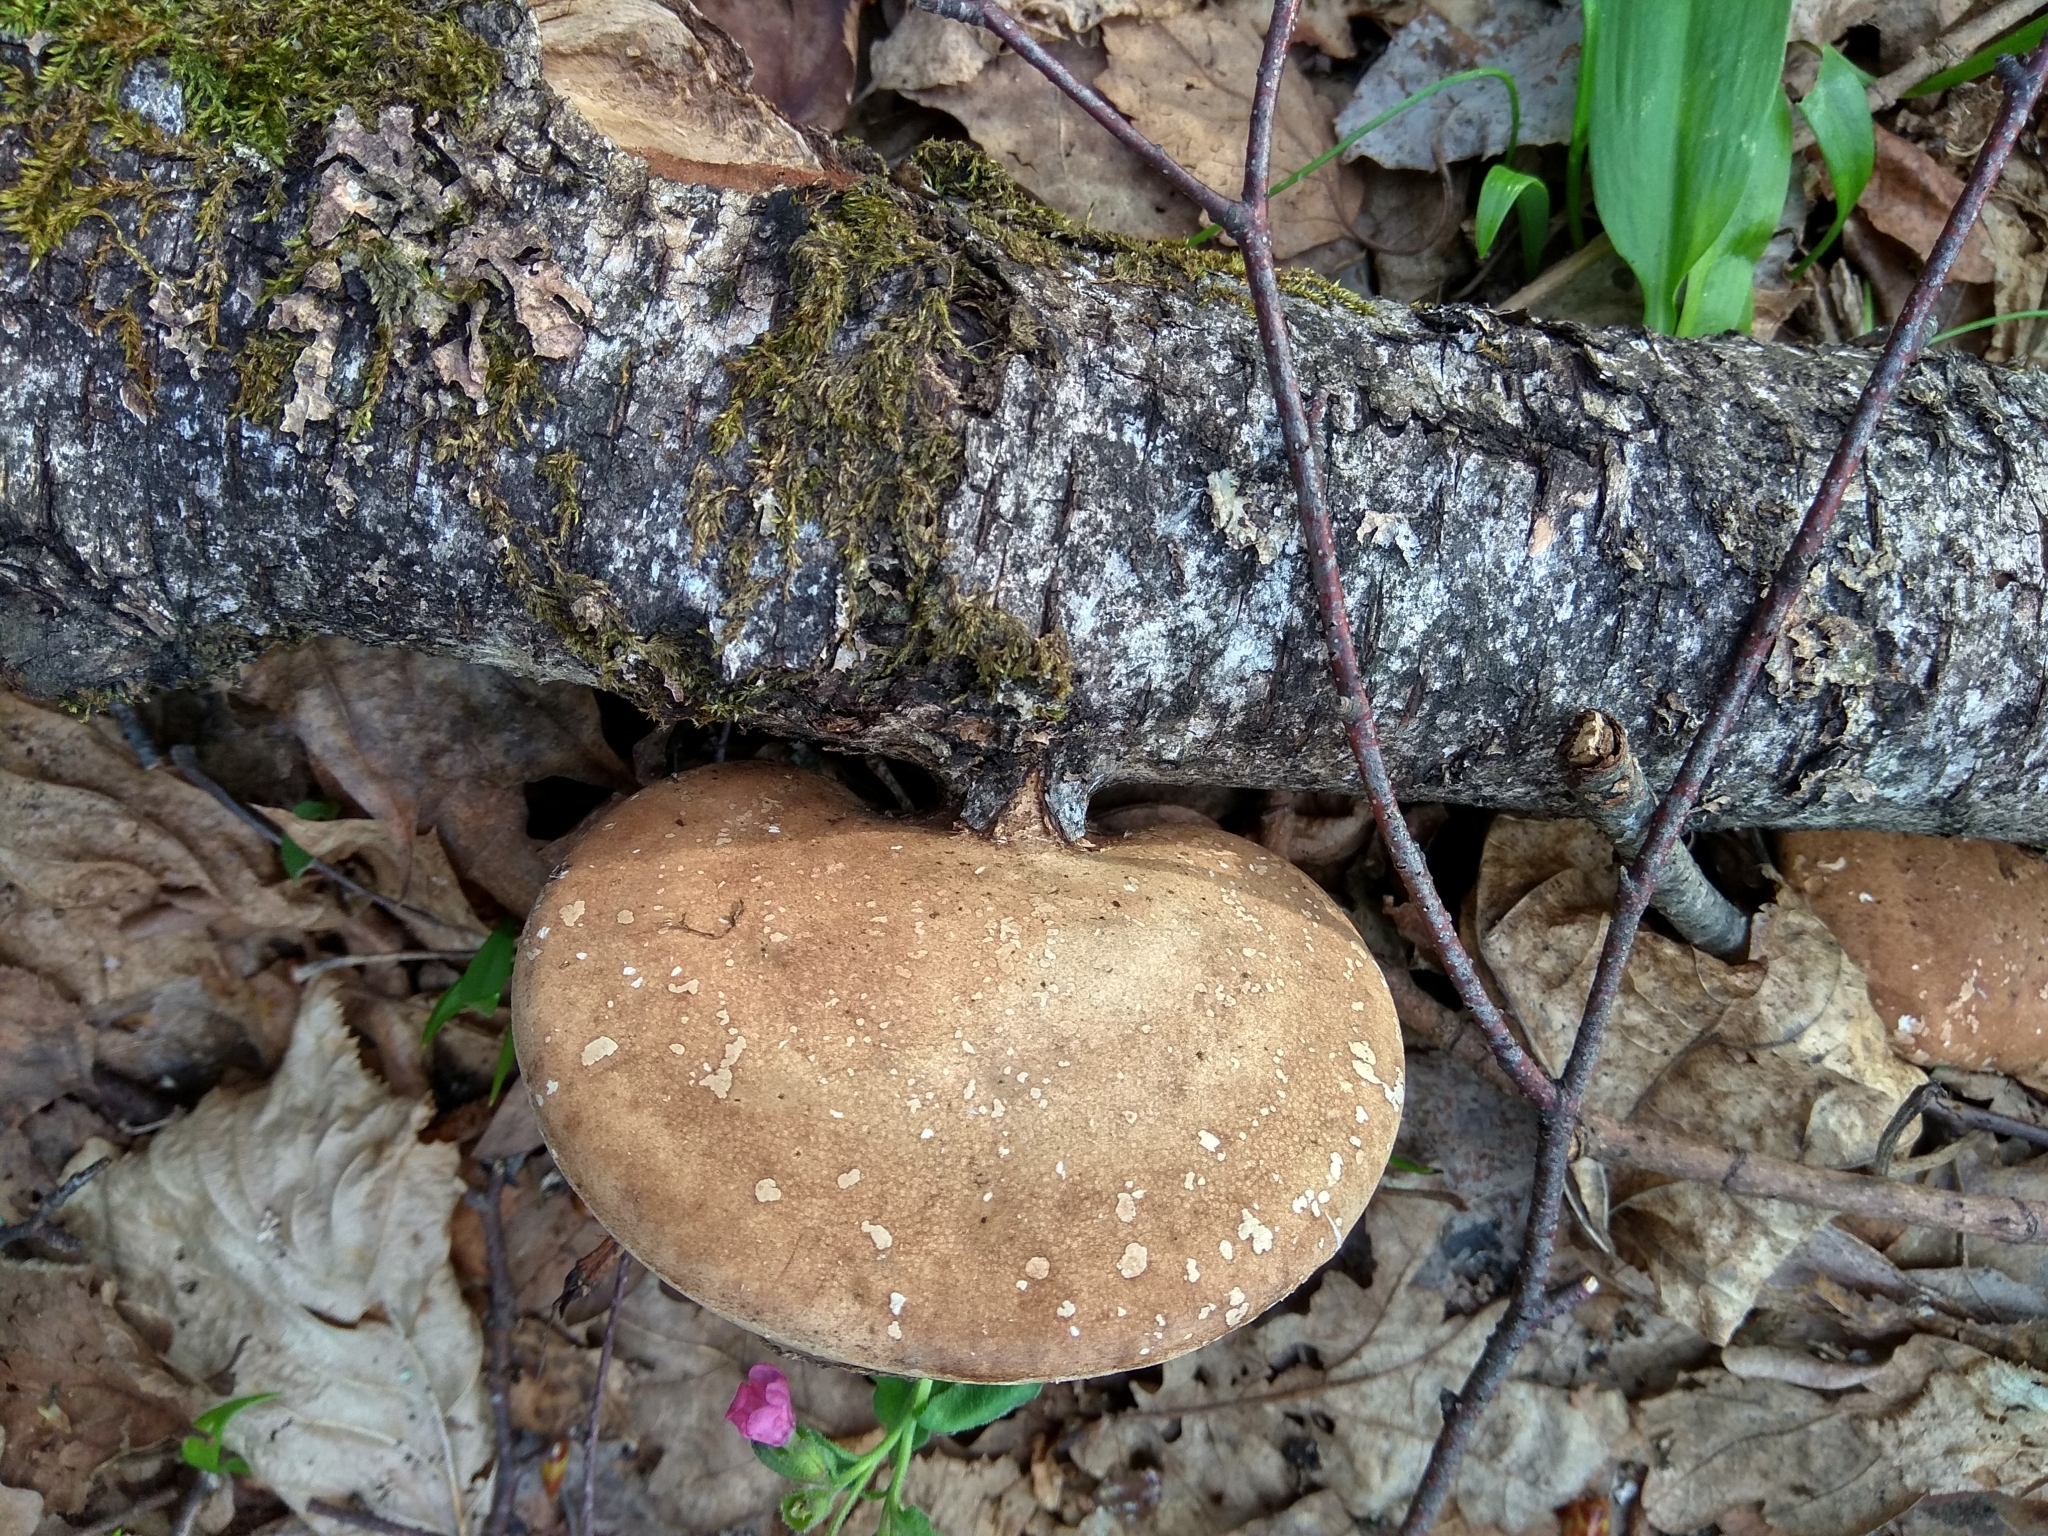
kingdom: Fungi
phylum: Basidiomycota
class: Agaricomycetes
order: Polyporales
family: Fomitopsidaceae
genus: Fomitopsis
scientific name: Fomitopsis betulina
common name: Birch polypore
